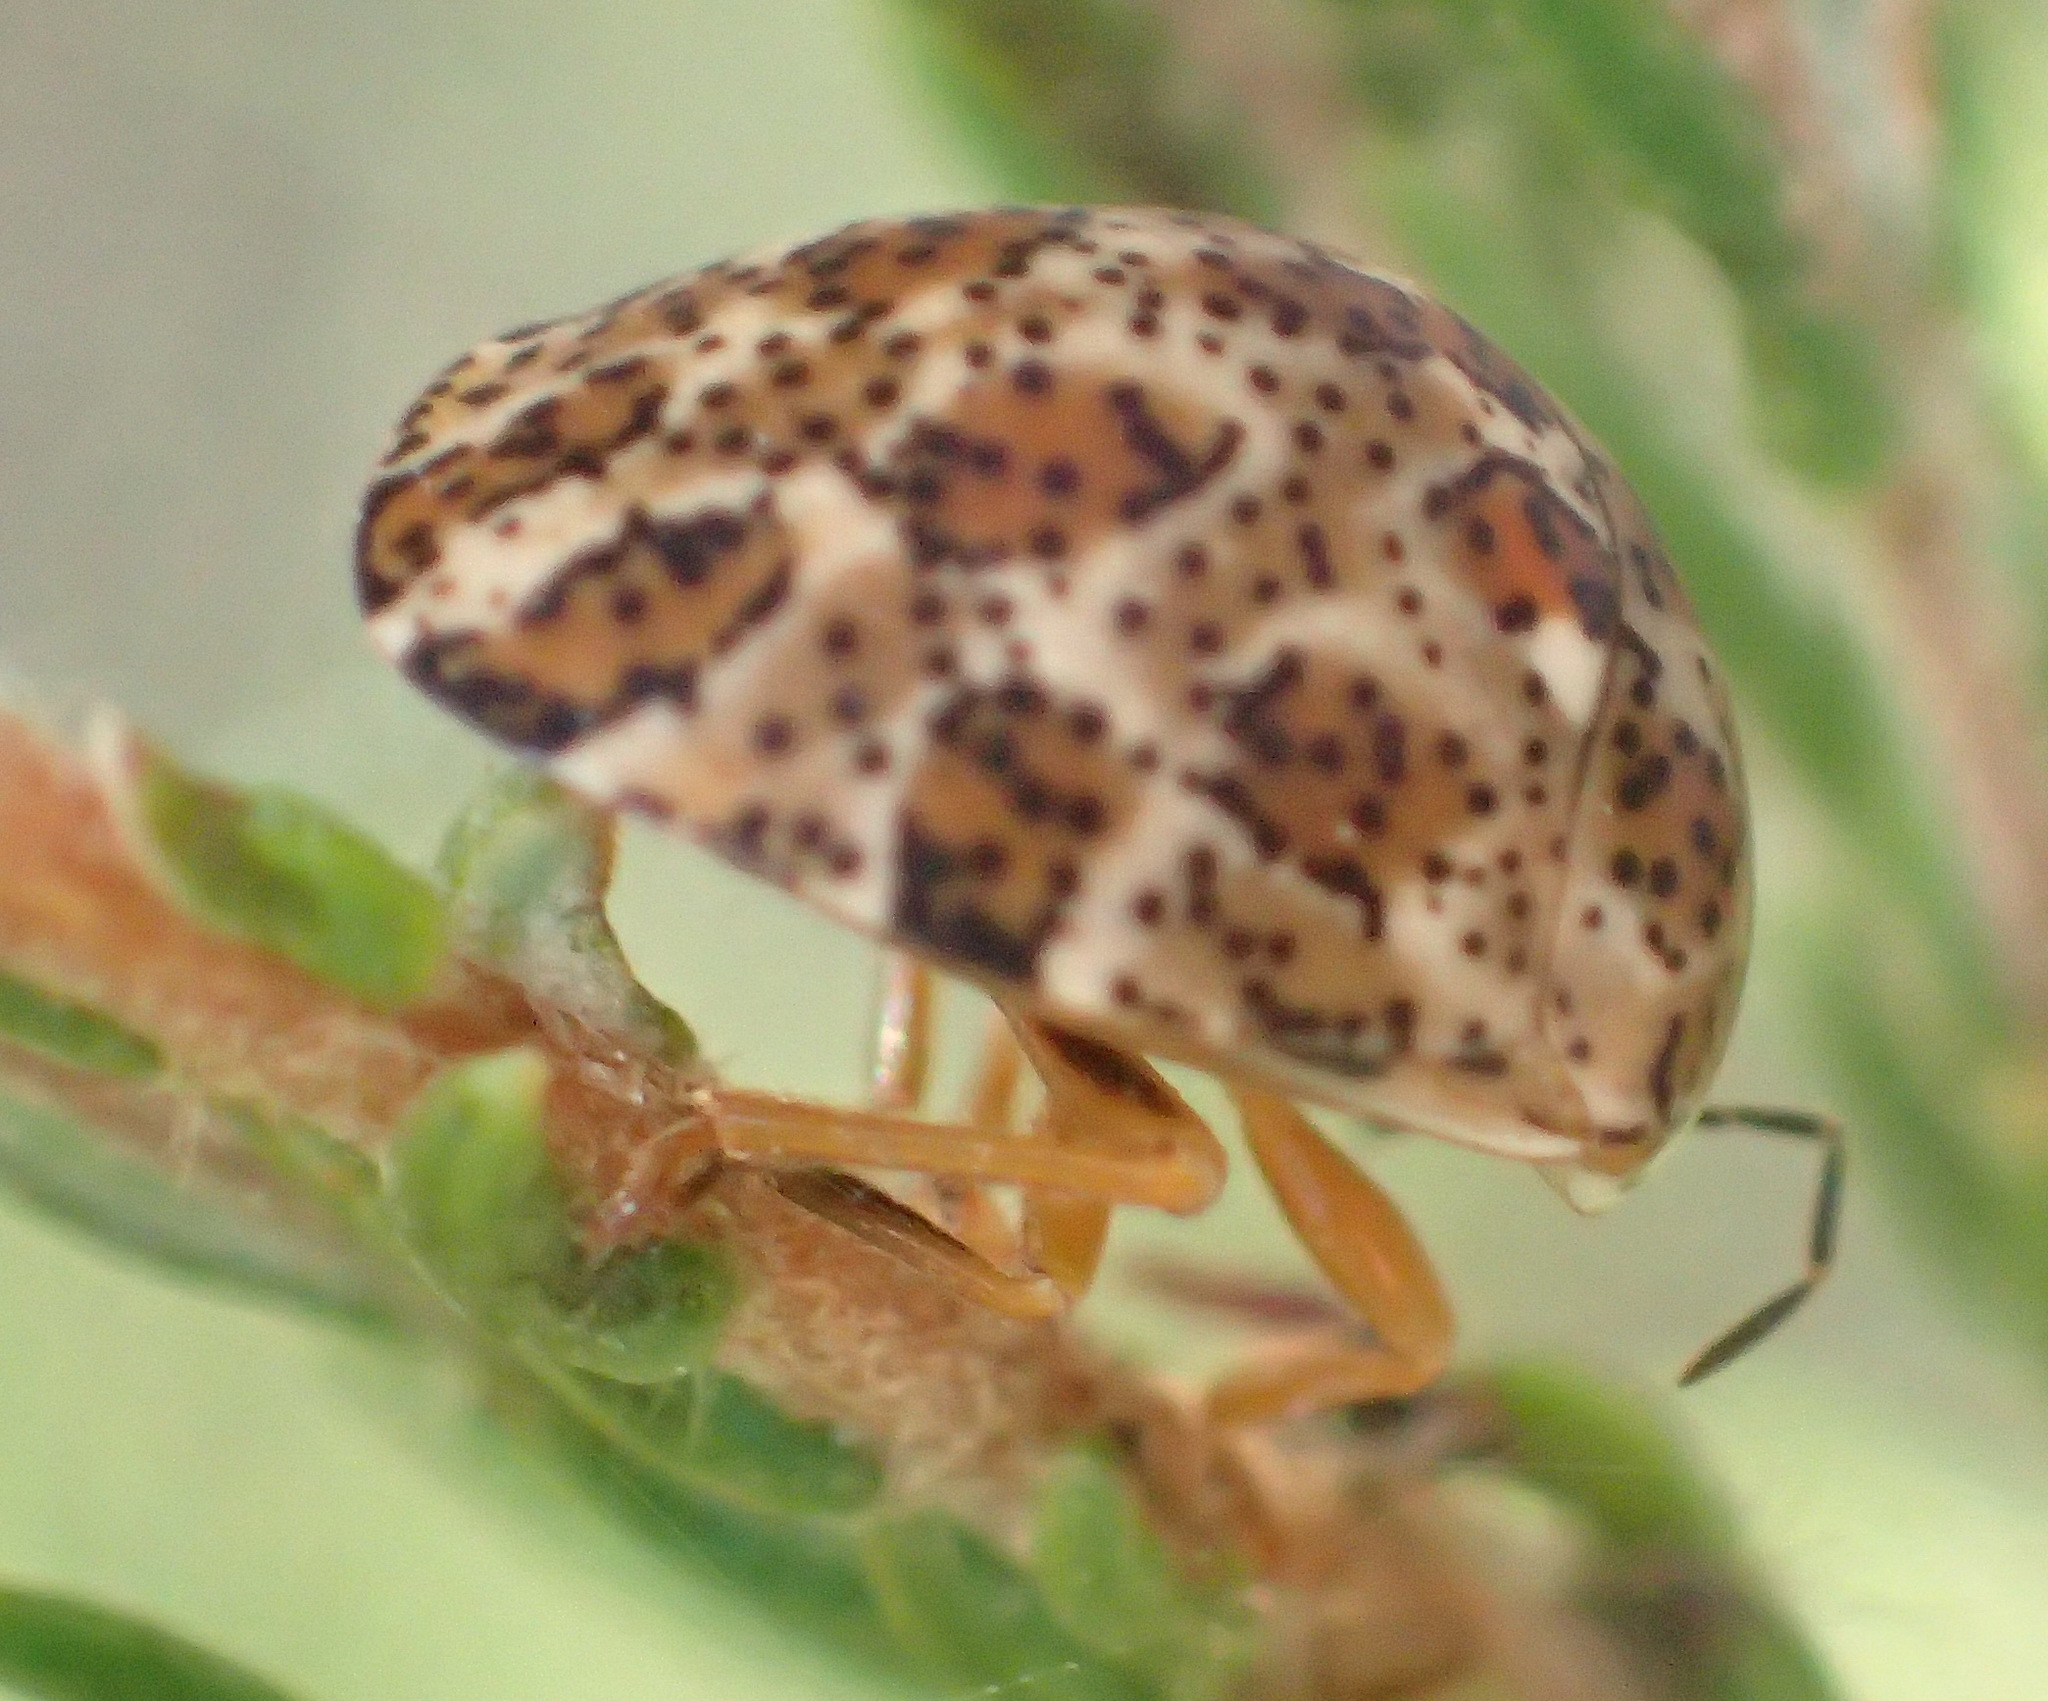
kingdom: Animalia
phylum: Arthropoda
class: Insecta
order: Hemiptera
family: Scutelleridae
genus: Sphaerocoris
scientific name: Sphaerocoris
